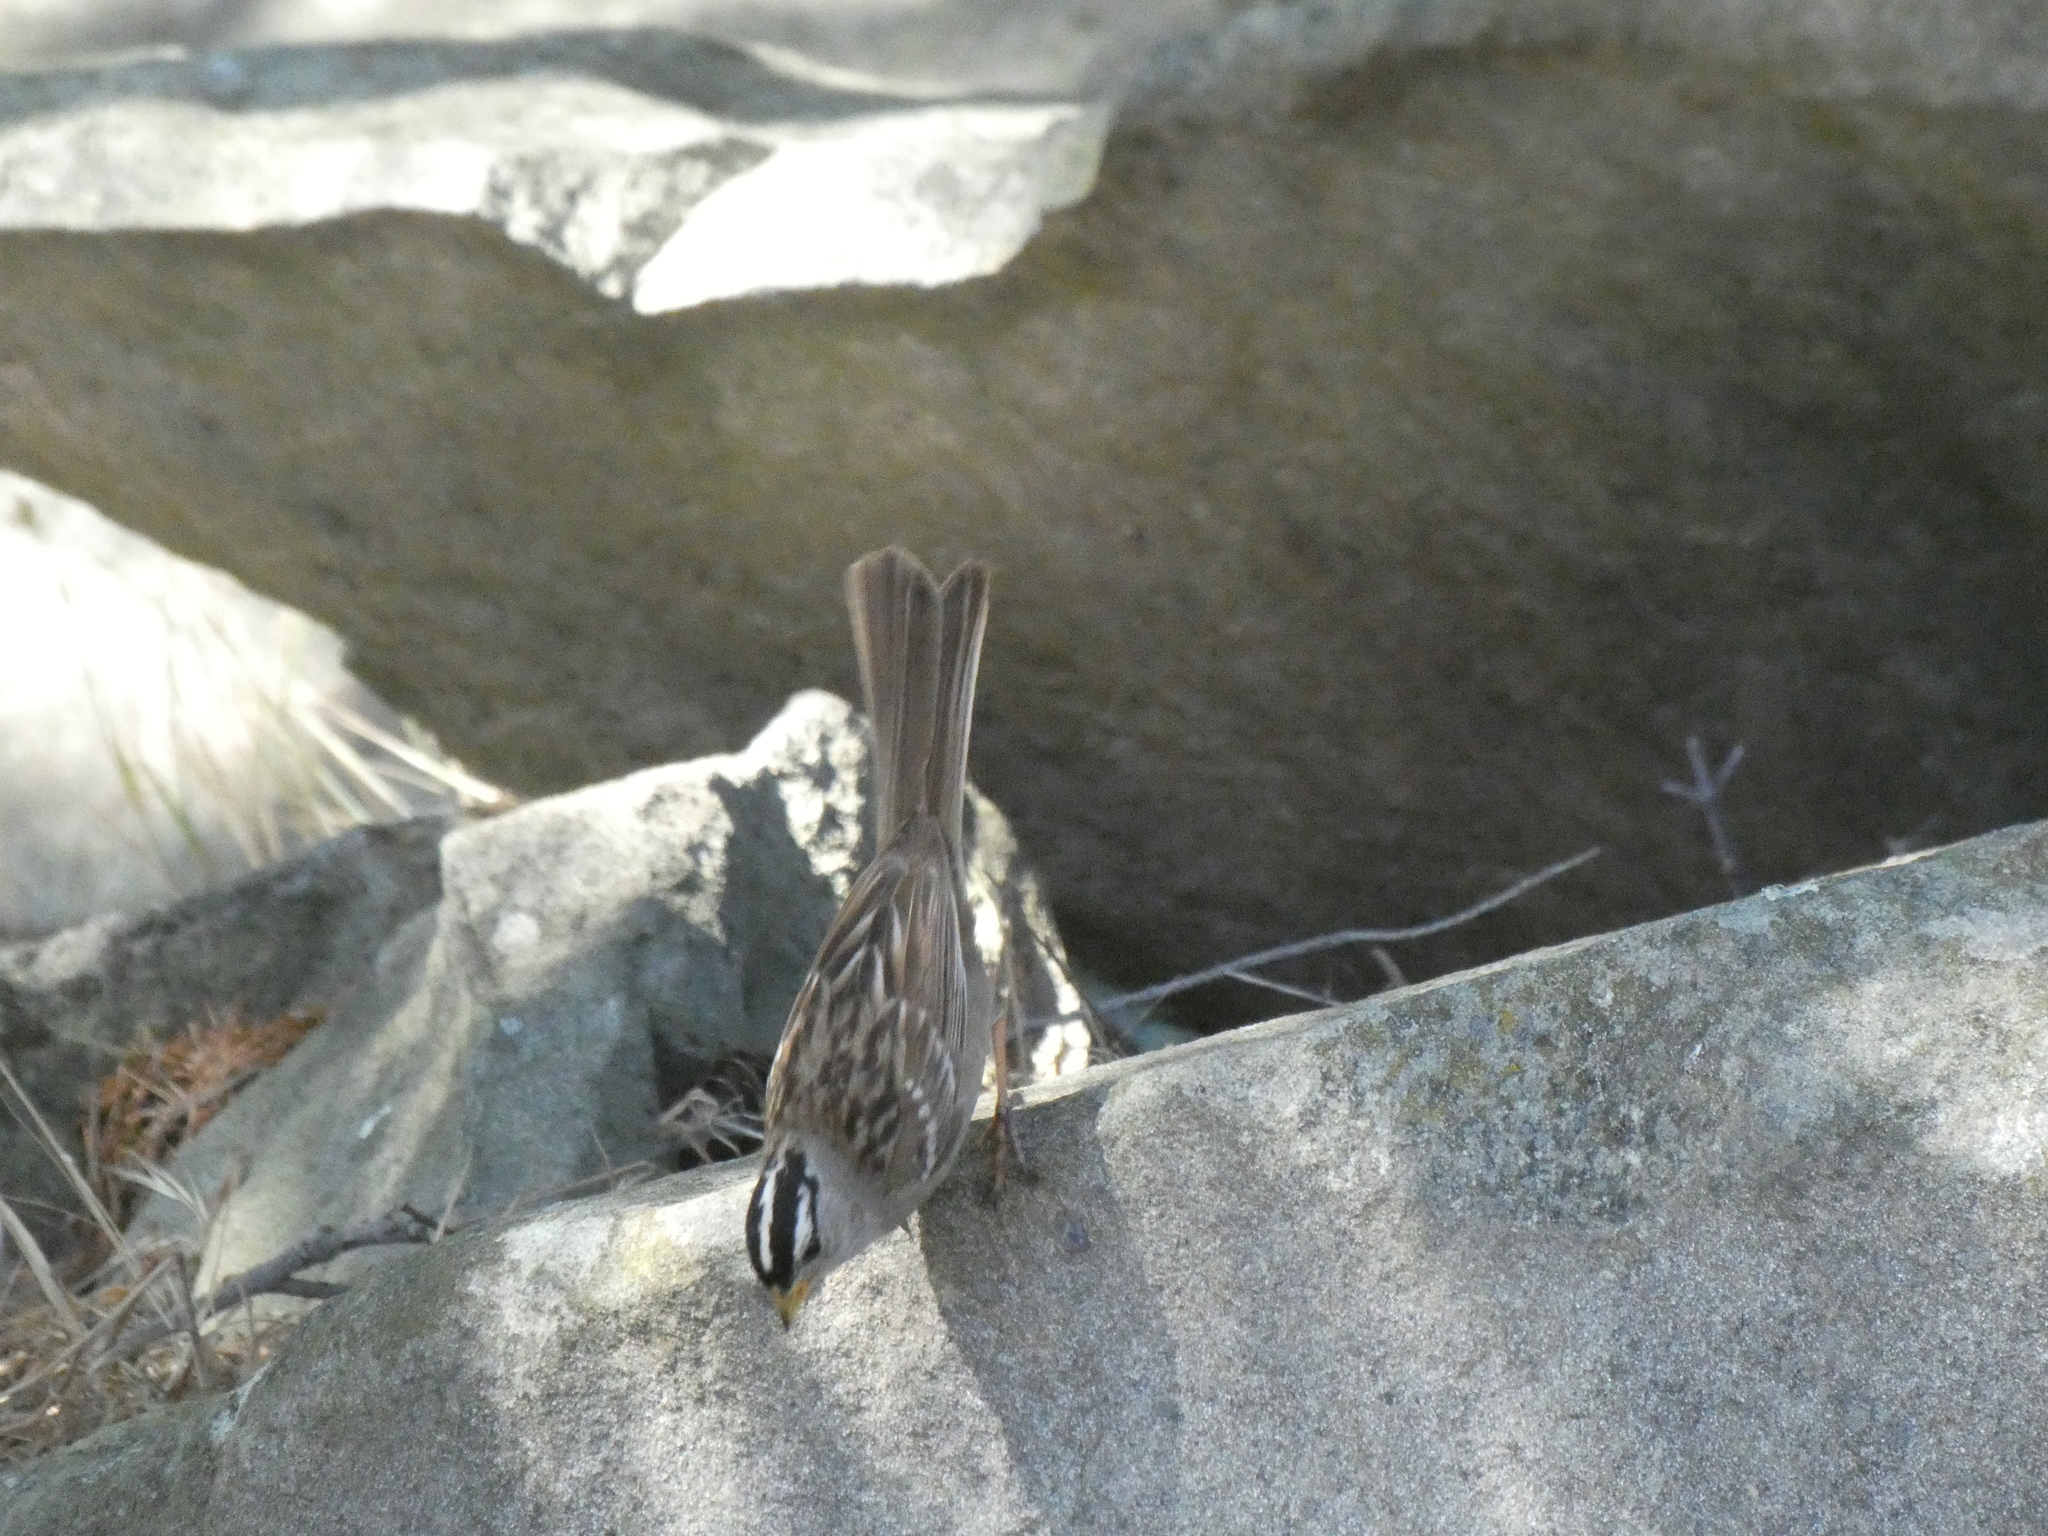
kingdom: Animalia
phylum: Chordata
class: Aves
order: Passeriformes
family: Passerellidae
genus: Zonotrichia
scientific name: Zonotrichia leucophrys
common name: White-crowned sparrow
